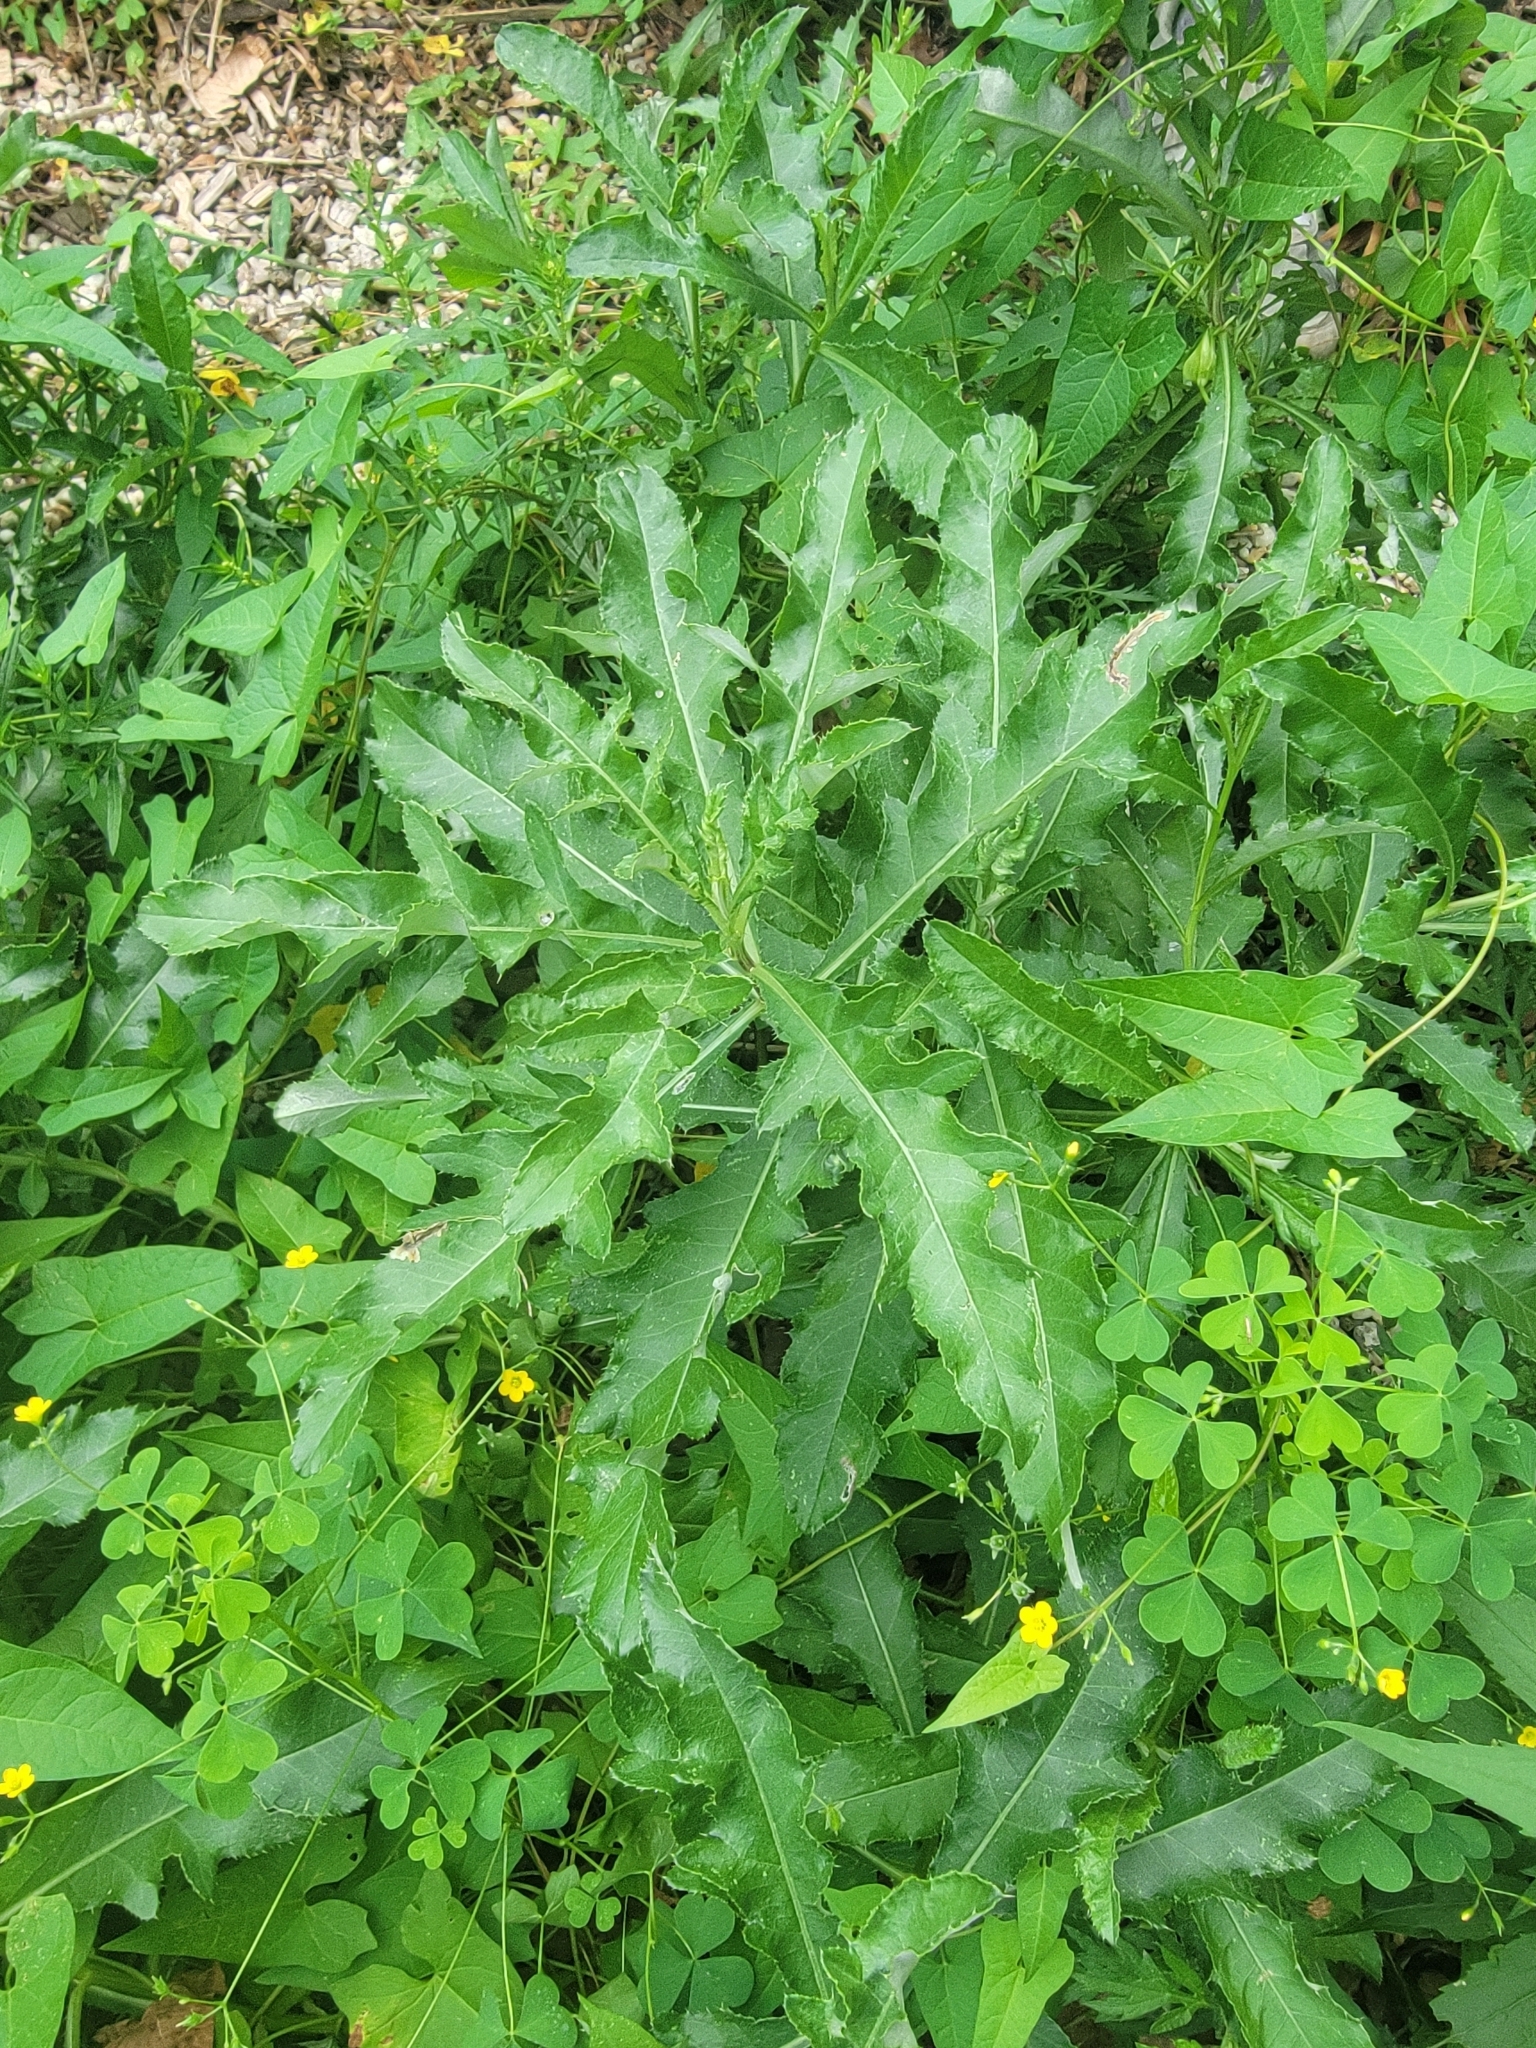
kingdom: Plantae
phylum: Tracheophyta
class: Magnoliopsida
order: Asterales
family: Asteraceae
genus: Cirsium
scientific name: Cirsium arvense
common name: Creeping thistle
